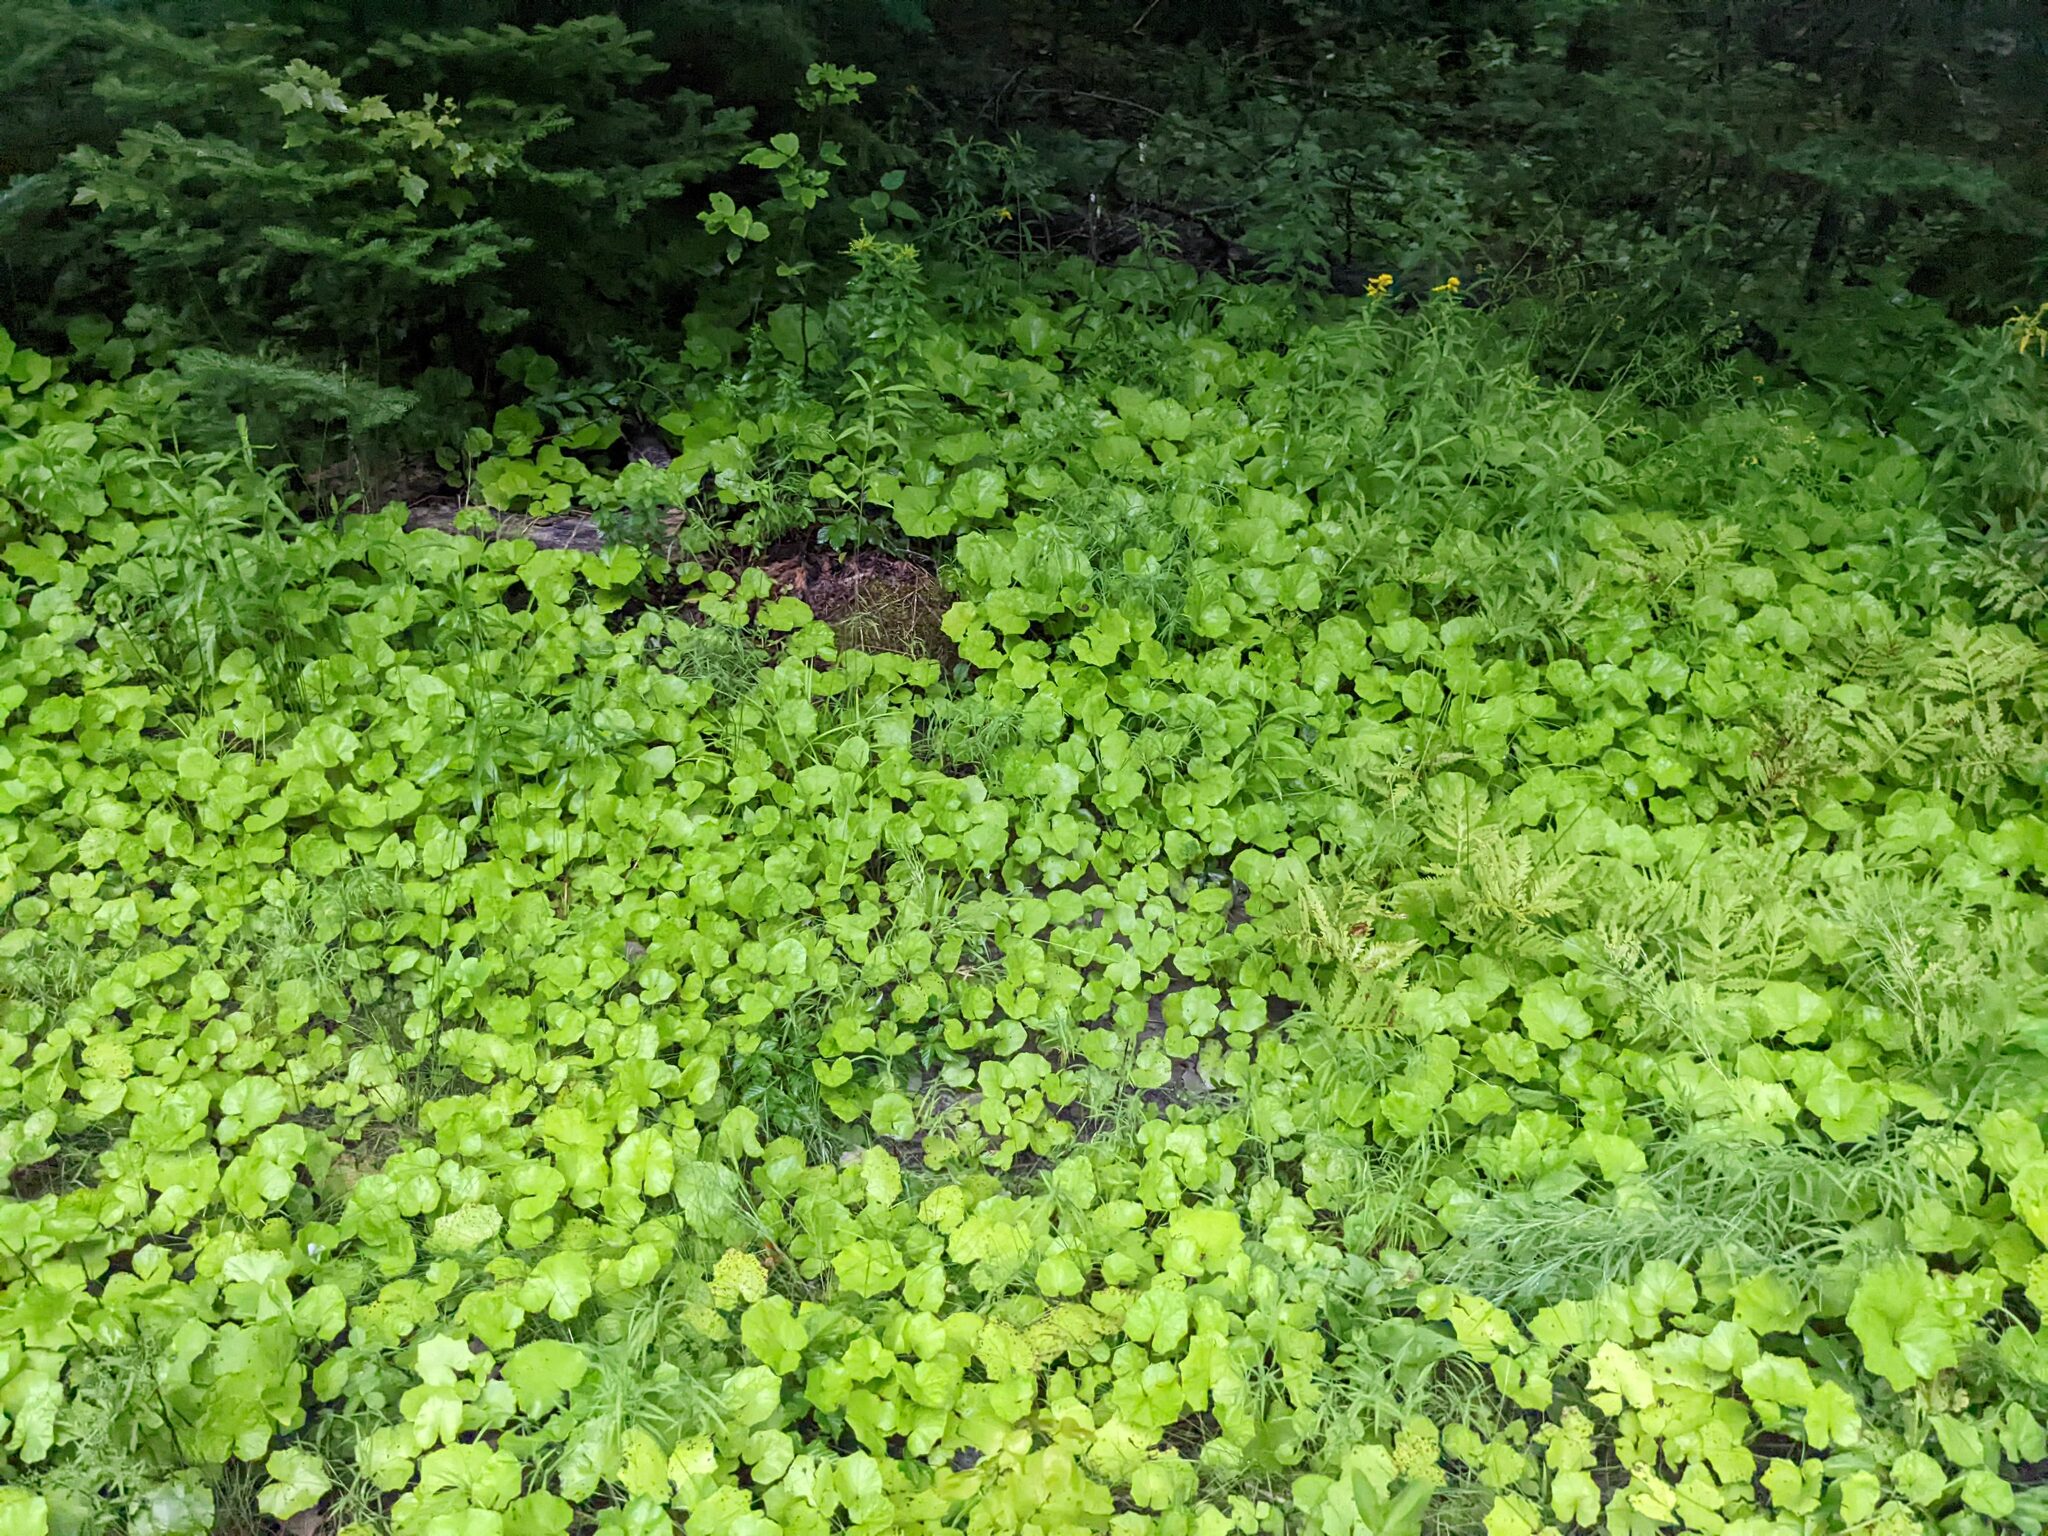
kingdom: Plantae
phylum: Tracheophyta
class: Magnoliopsida
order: Asterales
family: Asteraceae
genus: Tussilago
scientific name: Tussilago farfara
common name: Coltsfoot
